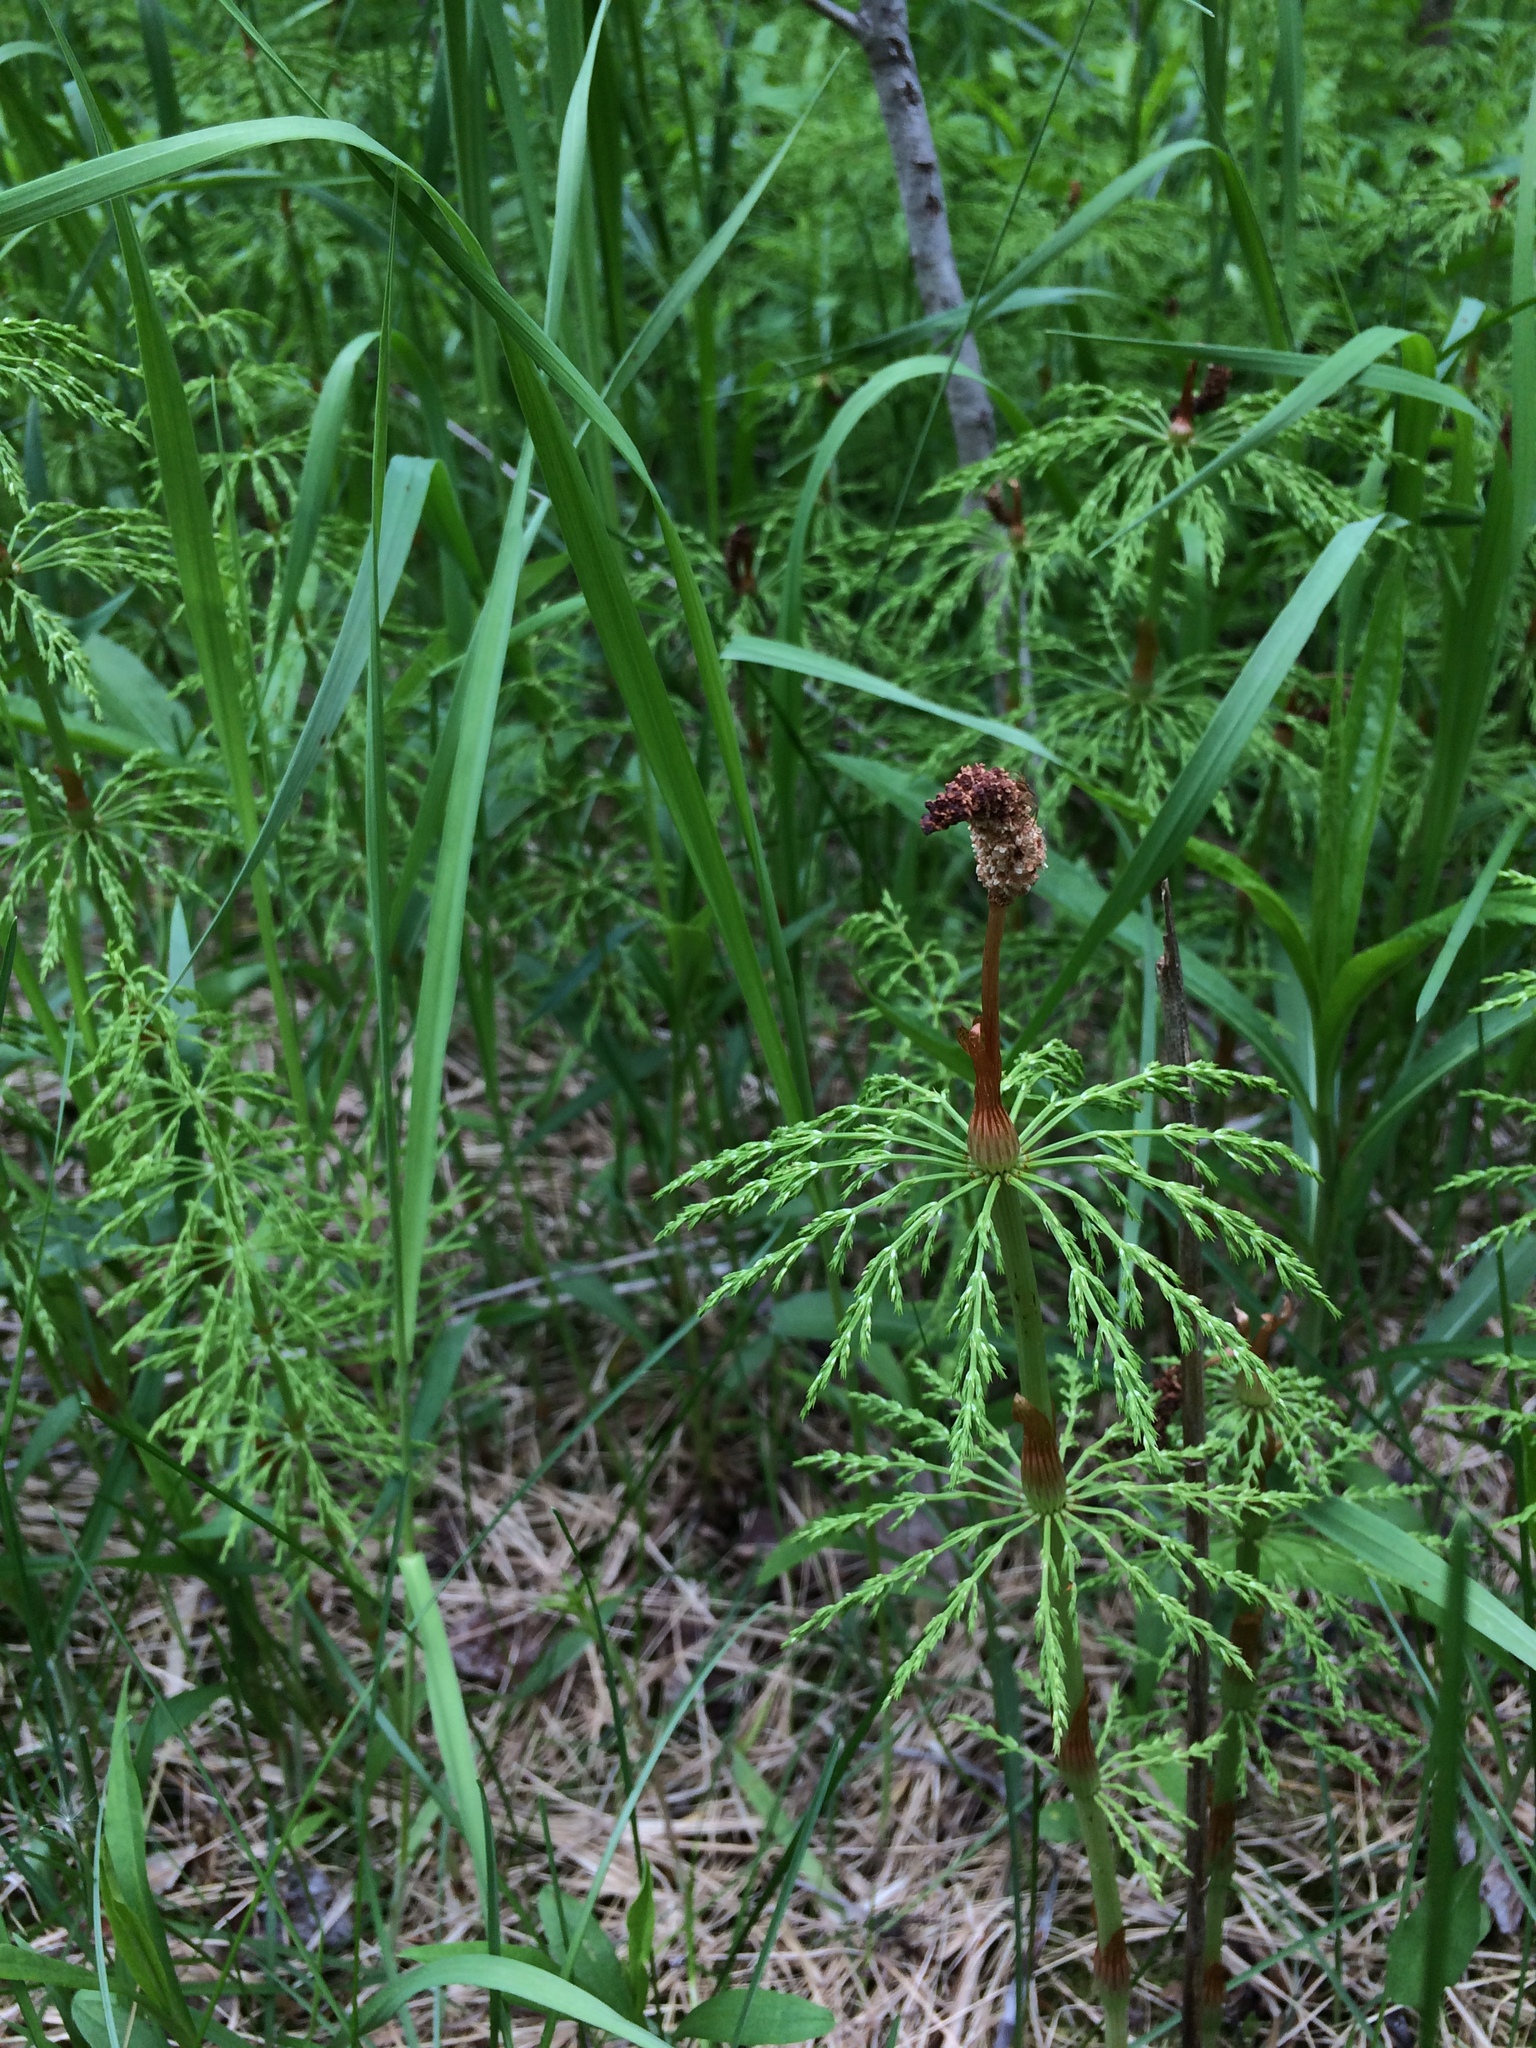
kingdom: Plantae
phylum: Tracheophyta
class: Polypodiopsida
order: Equisetales
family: Equisetaceae
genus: Equisetum
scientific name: Equisetum sylvaticum
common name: Wood horsetail
